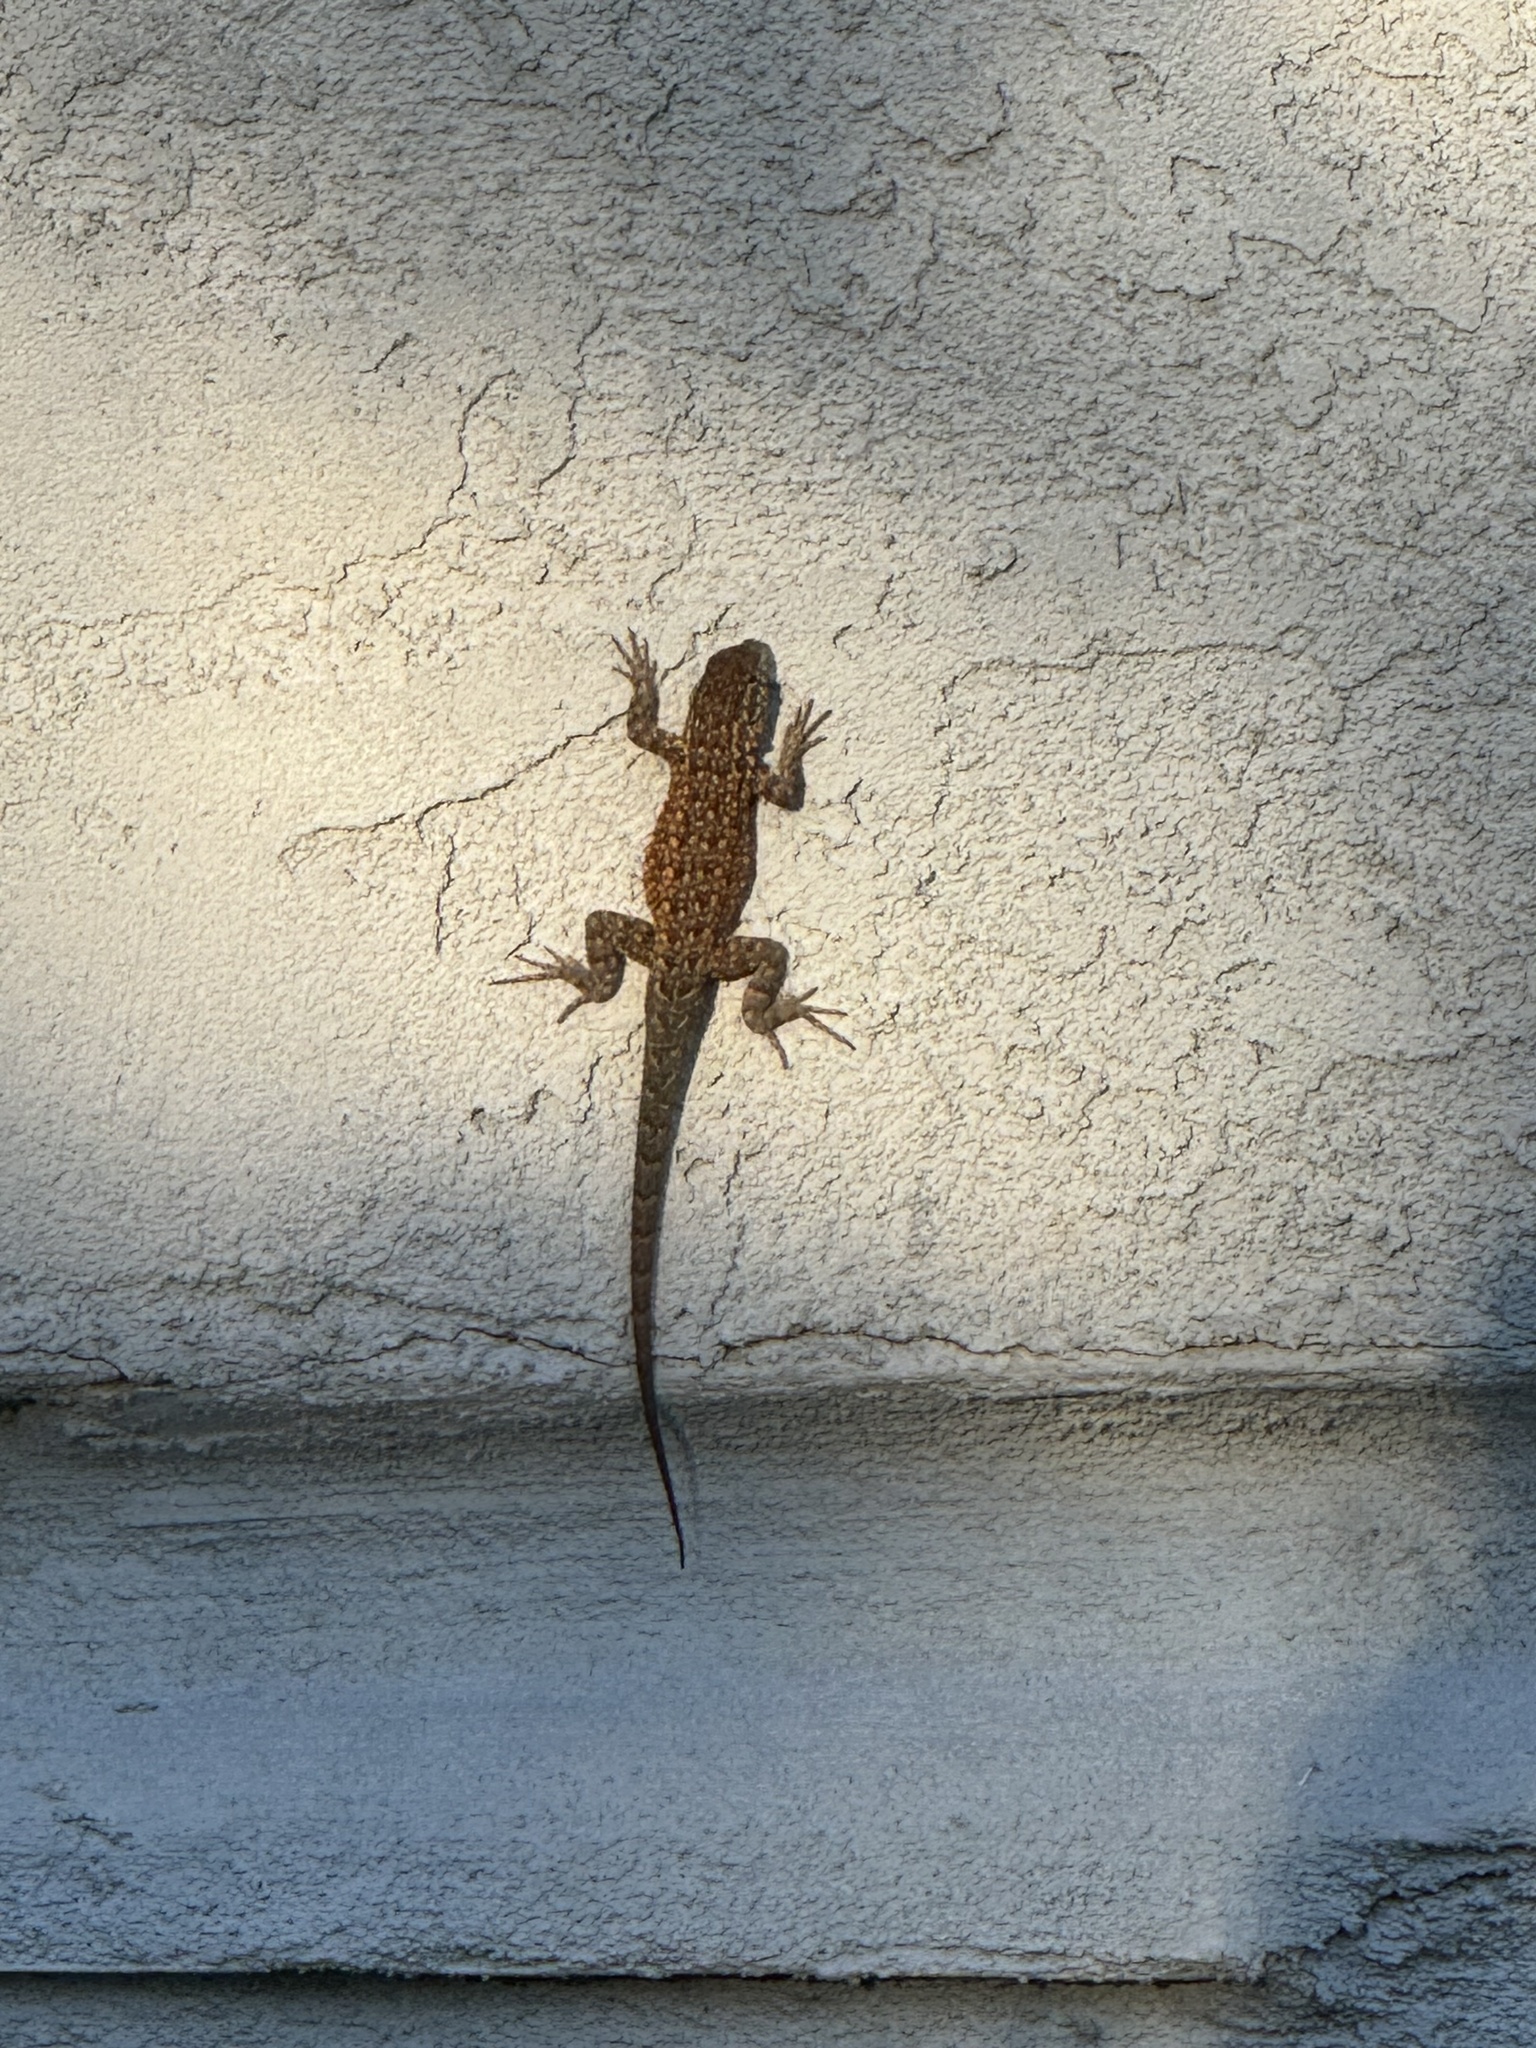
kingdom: Animalia
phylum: Chordata
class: Squamata
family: Phrynosomatidae
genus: Uta
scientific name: Uta stansburiana
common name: Side-blotched lizard
